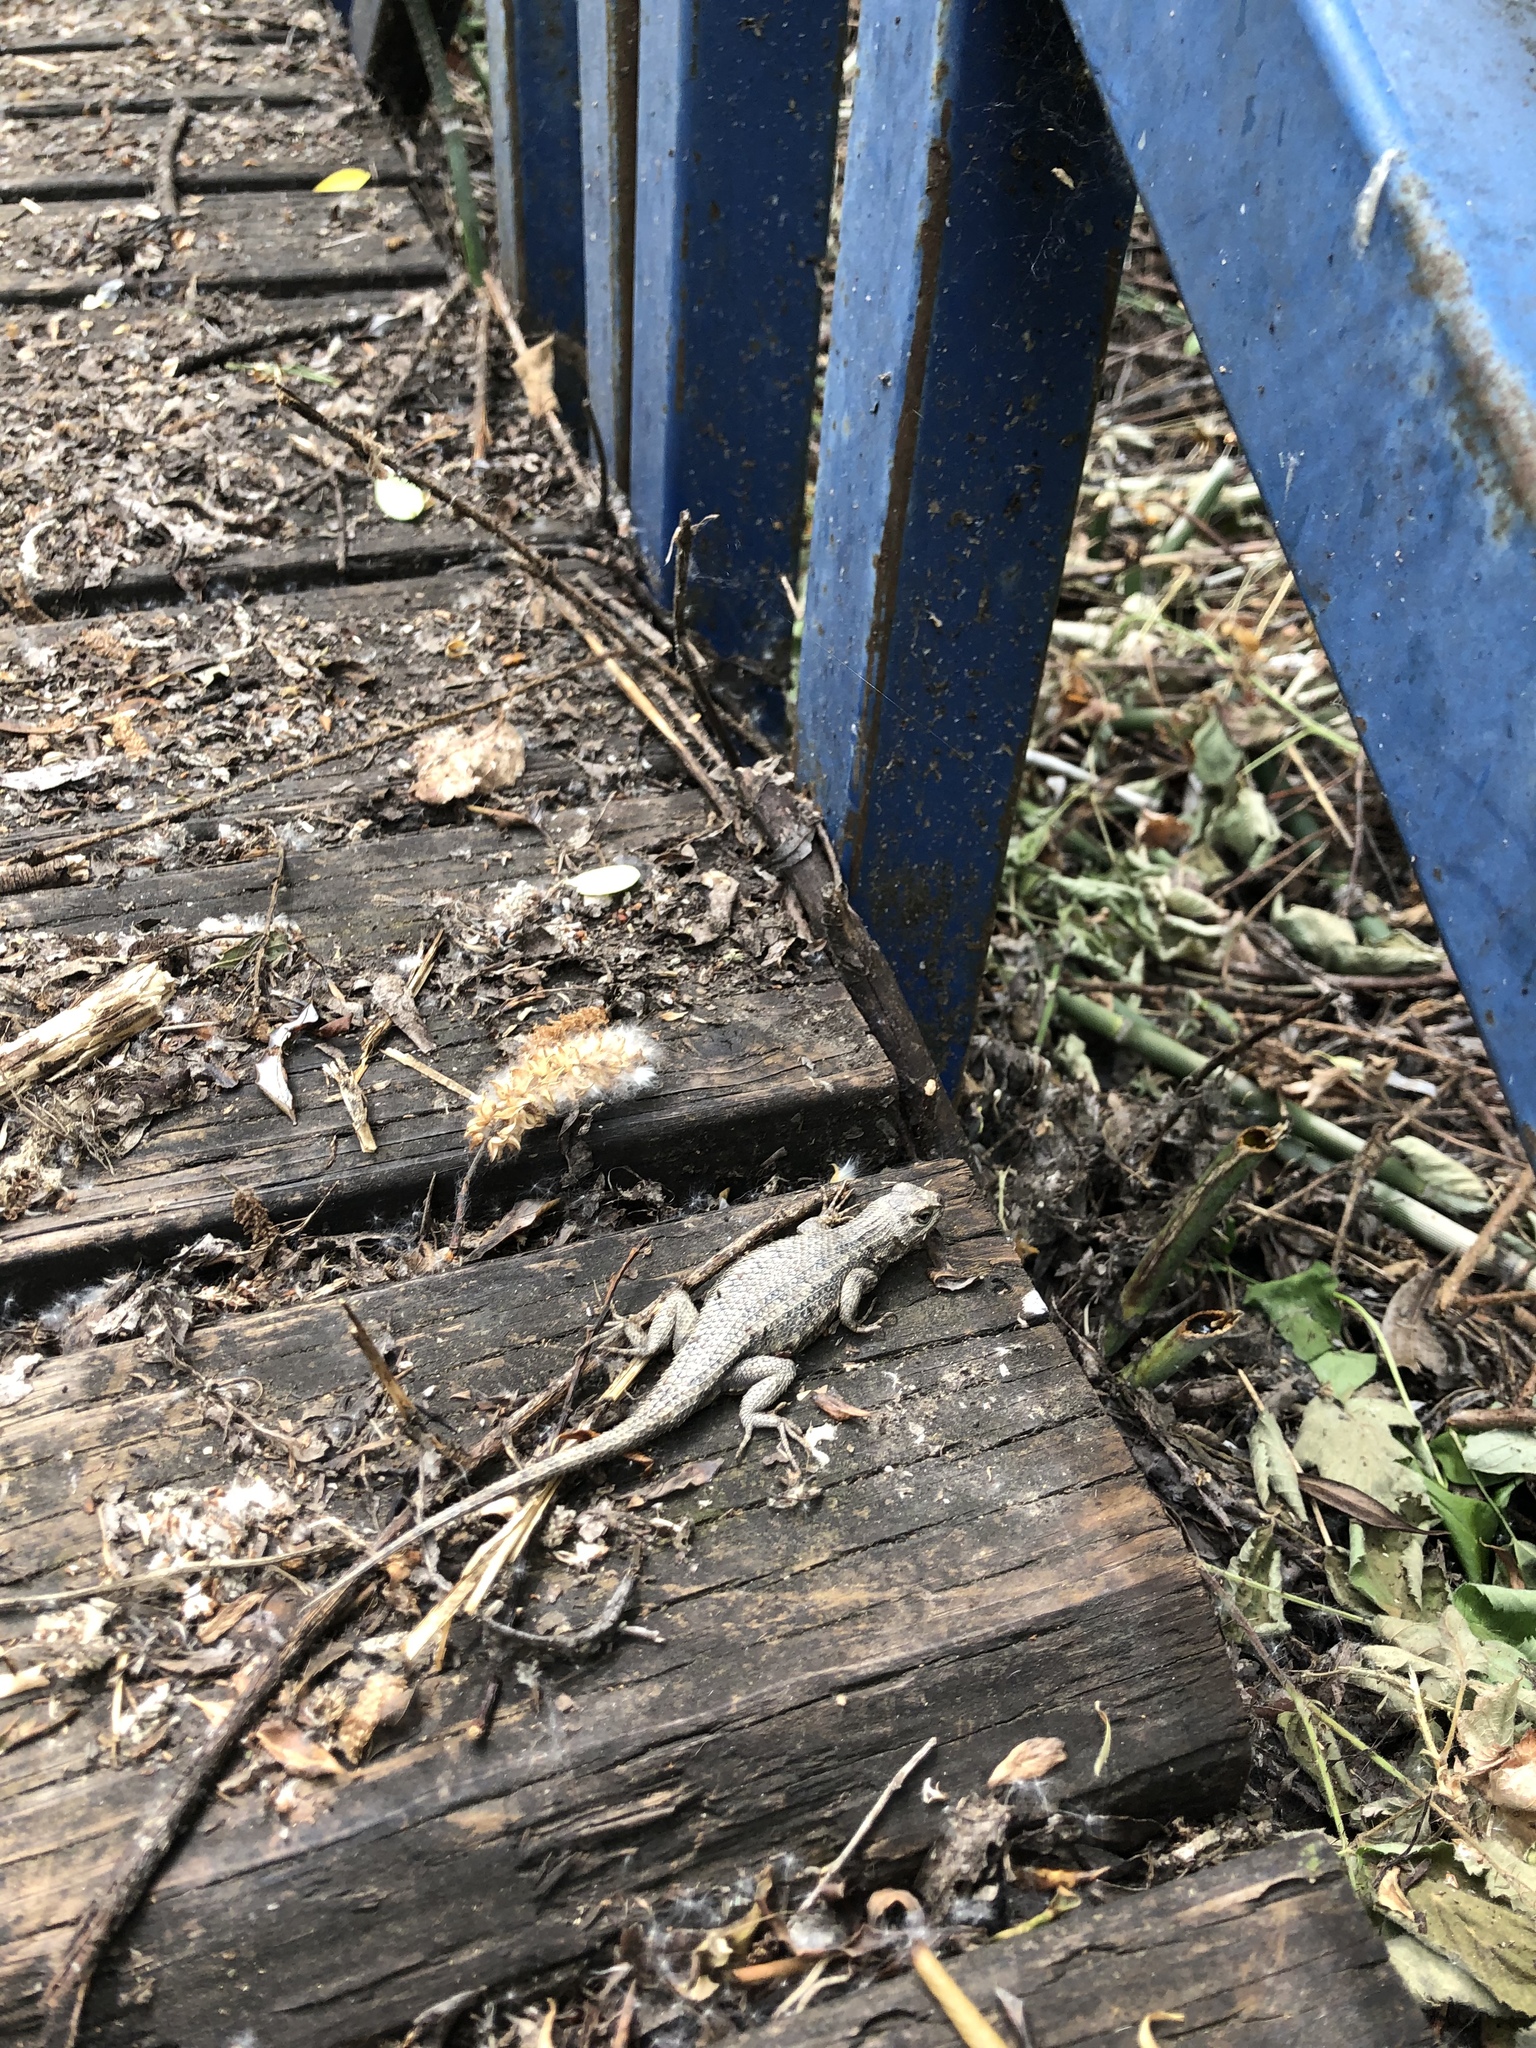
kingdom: Animalia
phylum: Chordata
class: Squamata
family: Phrynosomatidae
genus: Sceloporus
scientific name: Sceloporus occidentalis
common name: Western fence lizard
